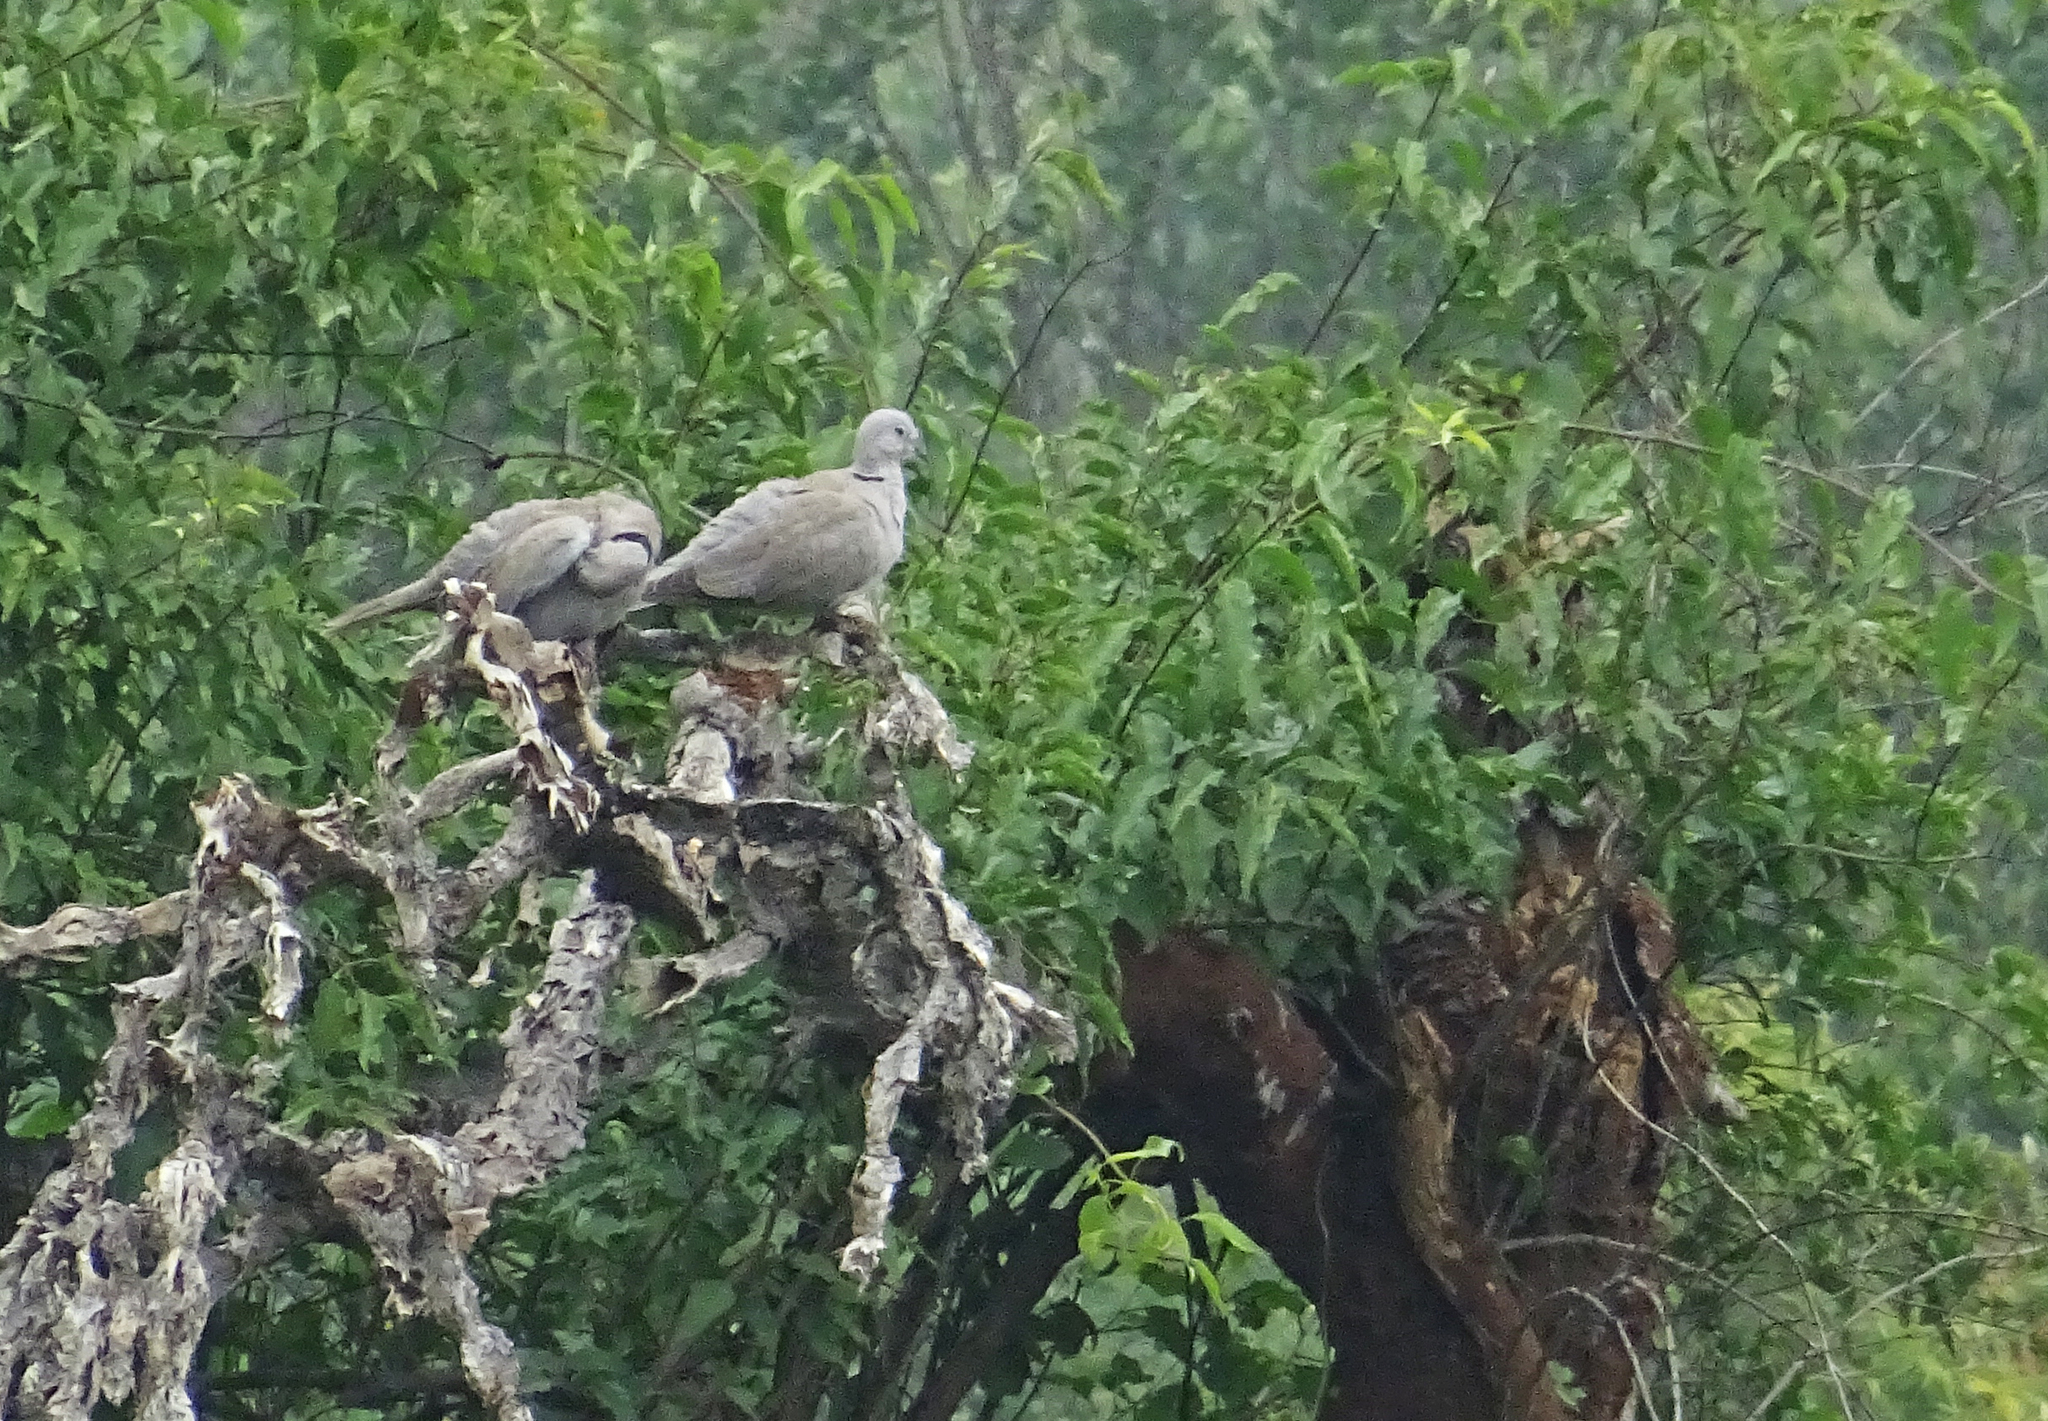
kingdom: Animalia
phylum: Chordata
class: Aves
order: Columbiformes
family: Columbidae
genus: Streptopelia
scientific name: Streptopelia decaocto
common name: Eurasian collared dove
